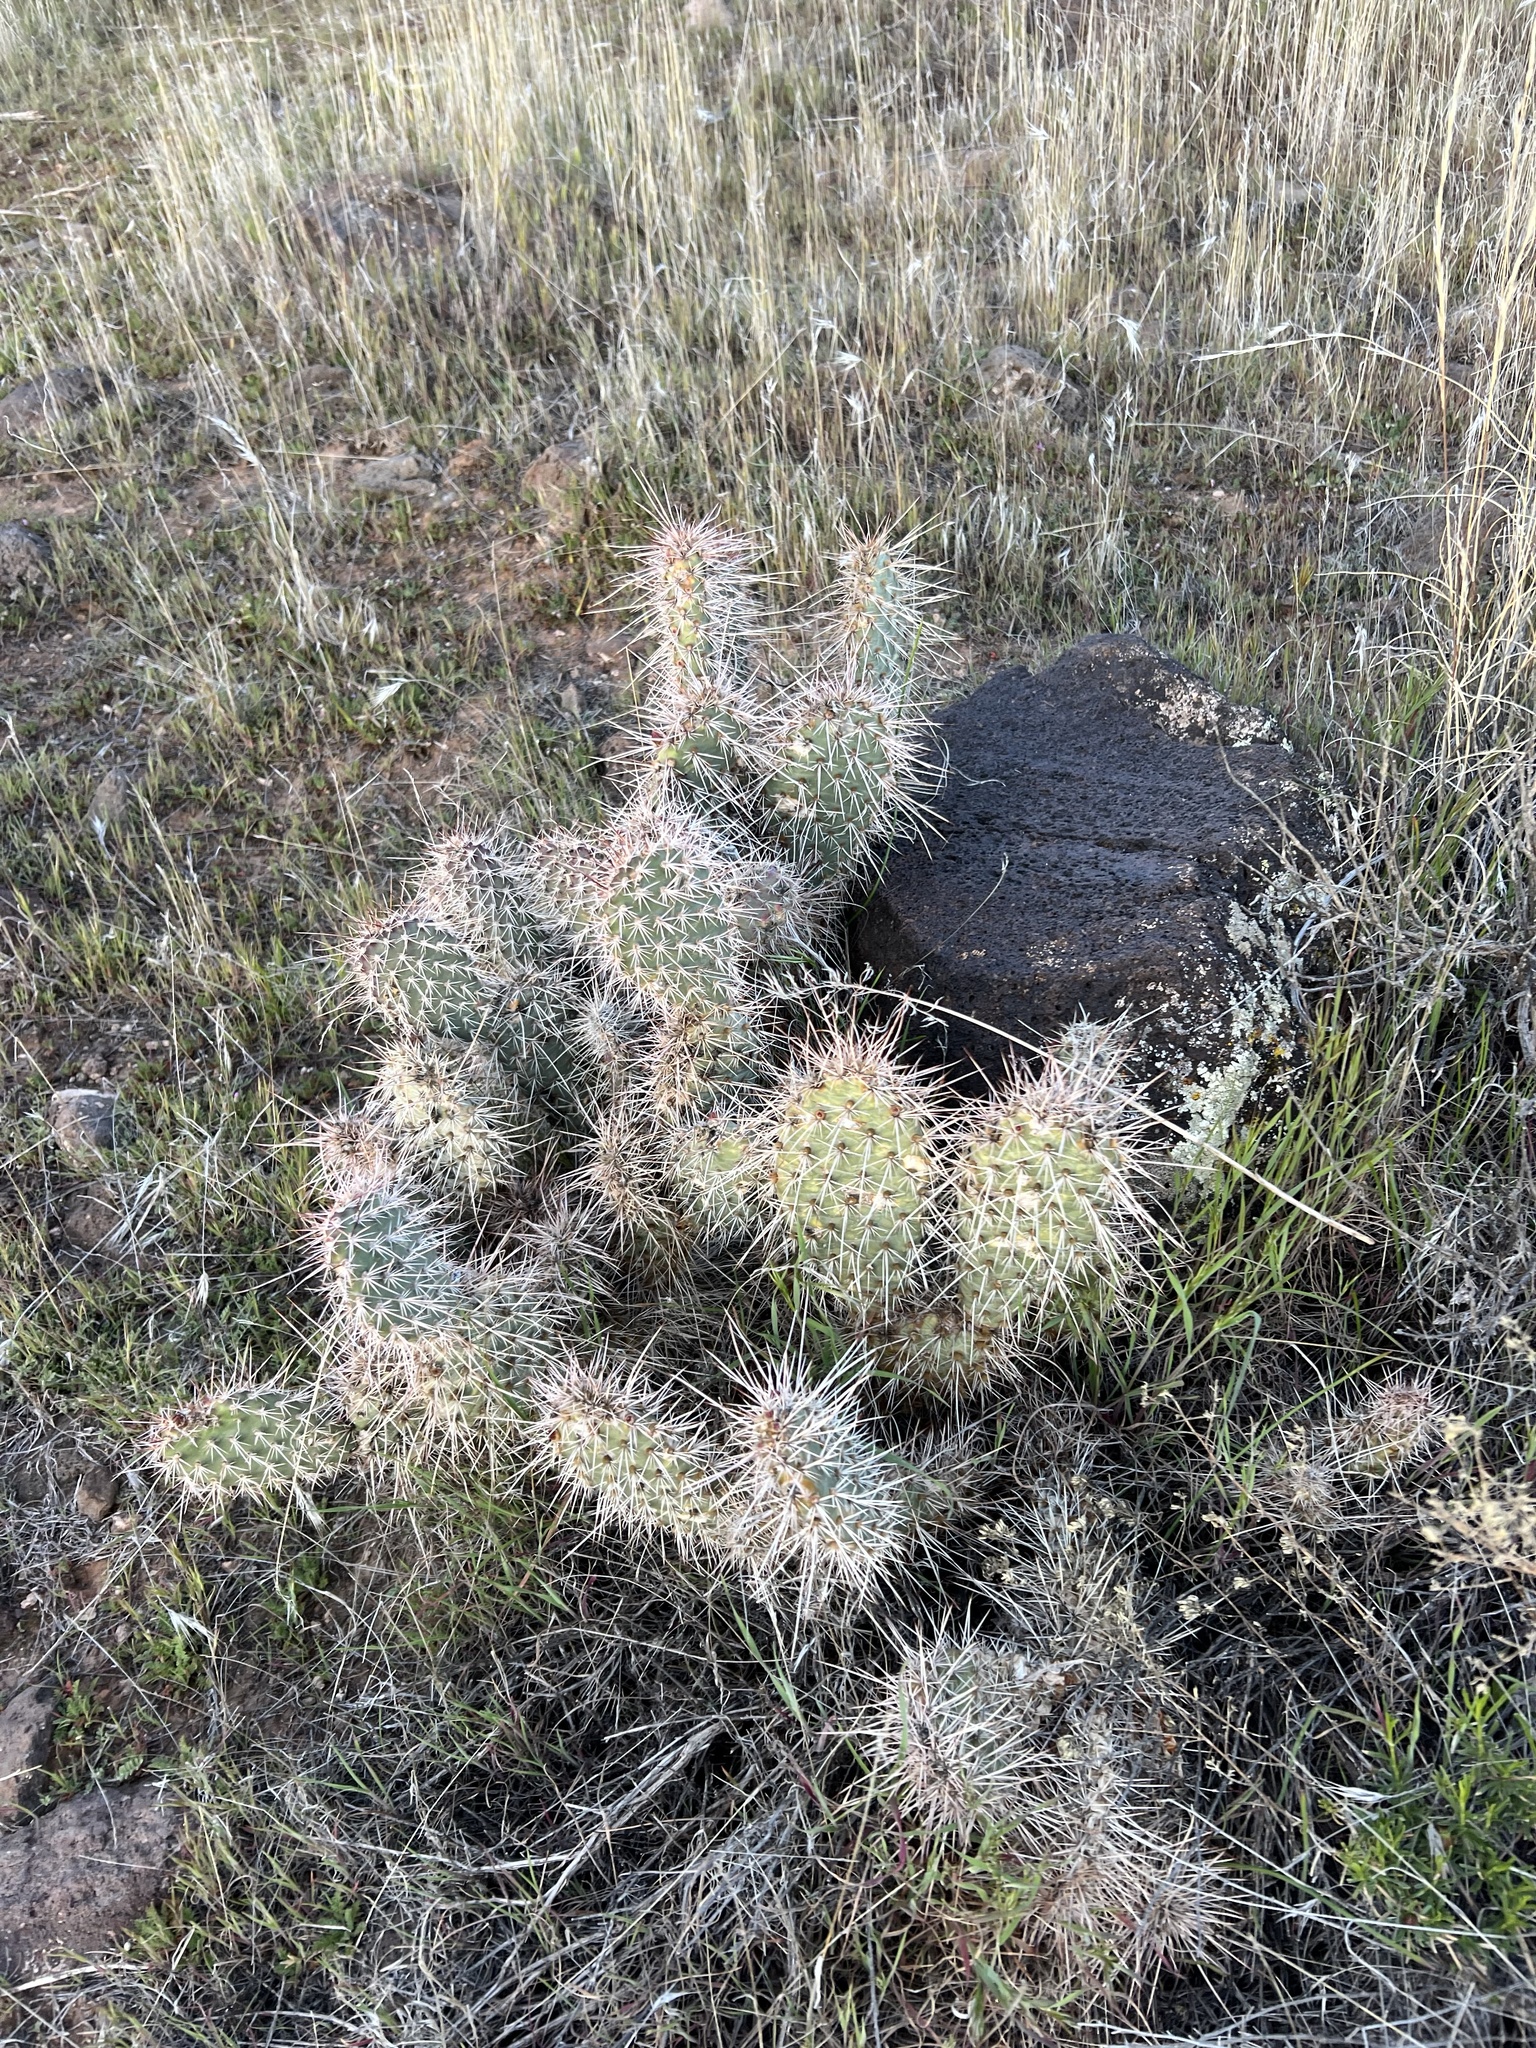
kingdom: Plantae
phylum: Tracheophyta
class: Magnoliopsida
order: Caryophyllales
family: Cactaceae
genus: Opuntia
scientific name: Opuntia polyacantha
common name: Plains prickly-pear
